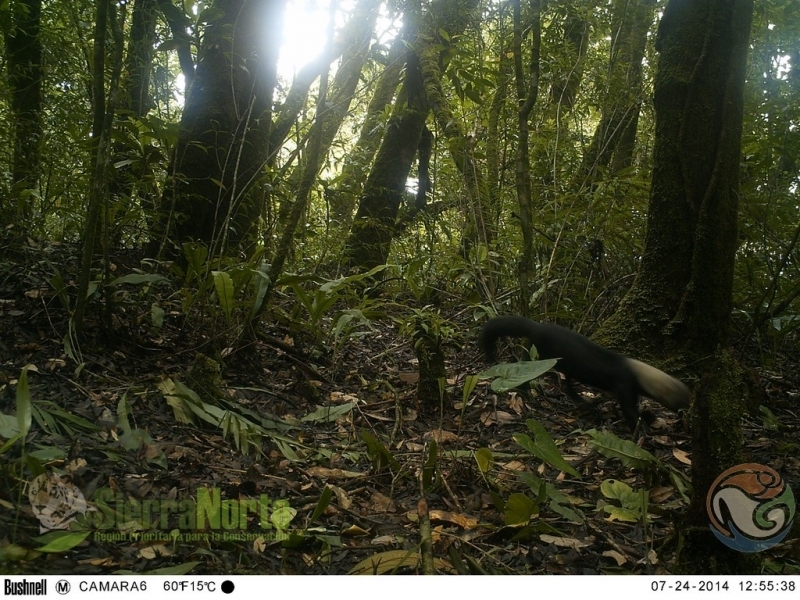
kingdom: Animalia
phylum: Chordata
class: Mammalia
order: Carnivora
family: Mustelidae
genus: Eira
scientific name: Eira barbara
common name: Tayra
